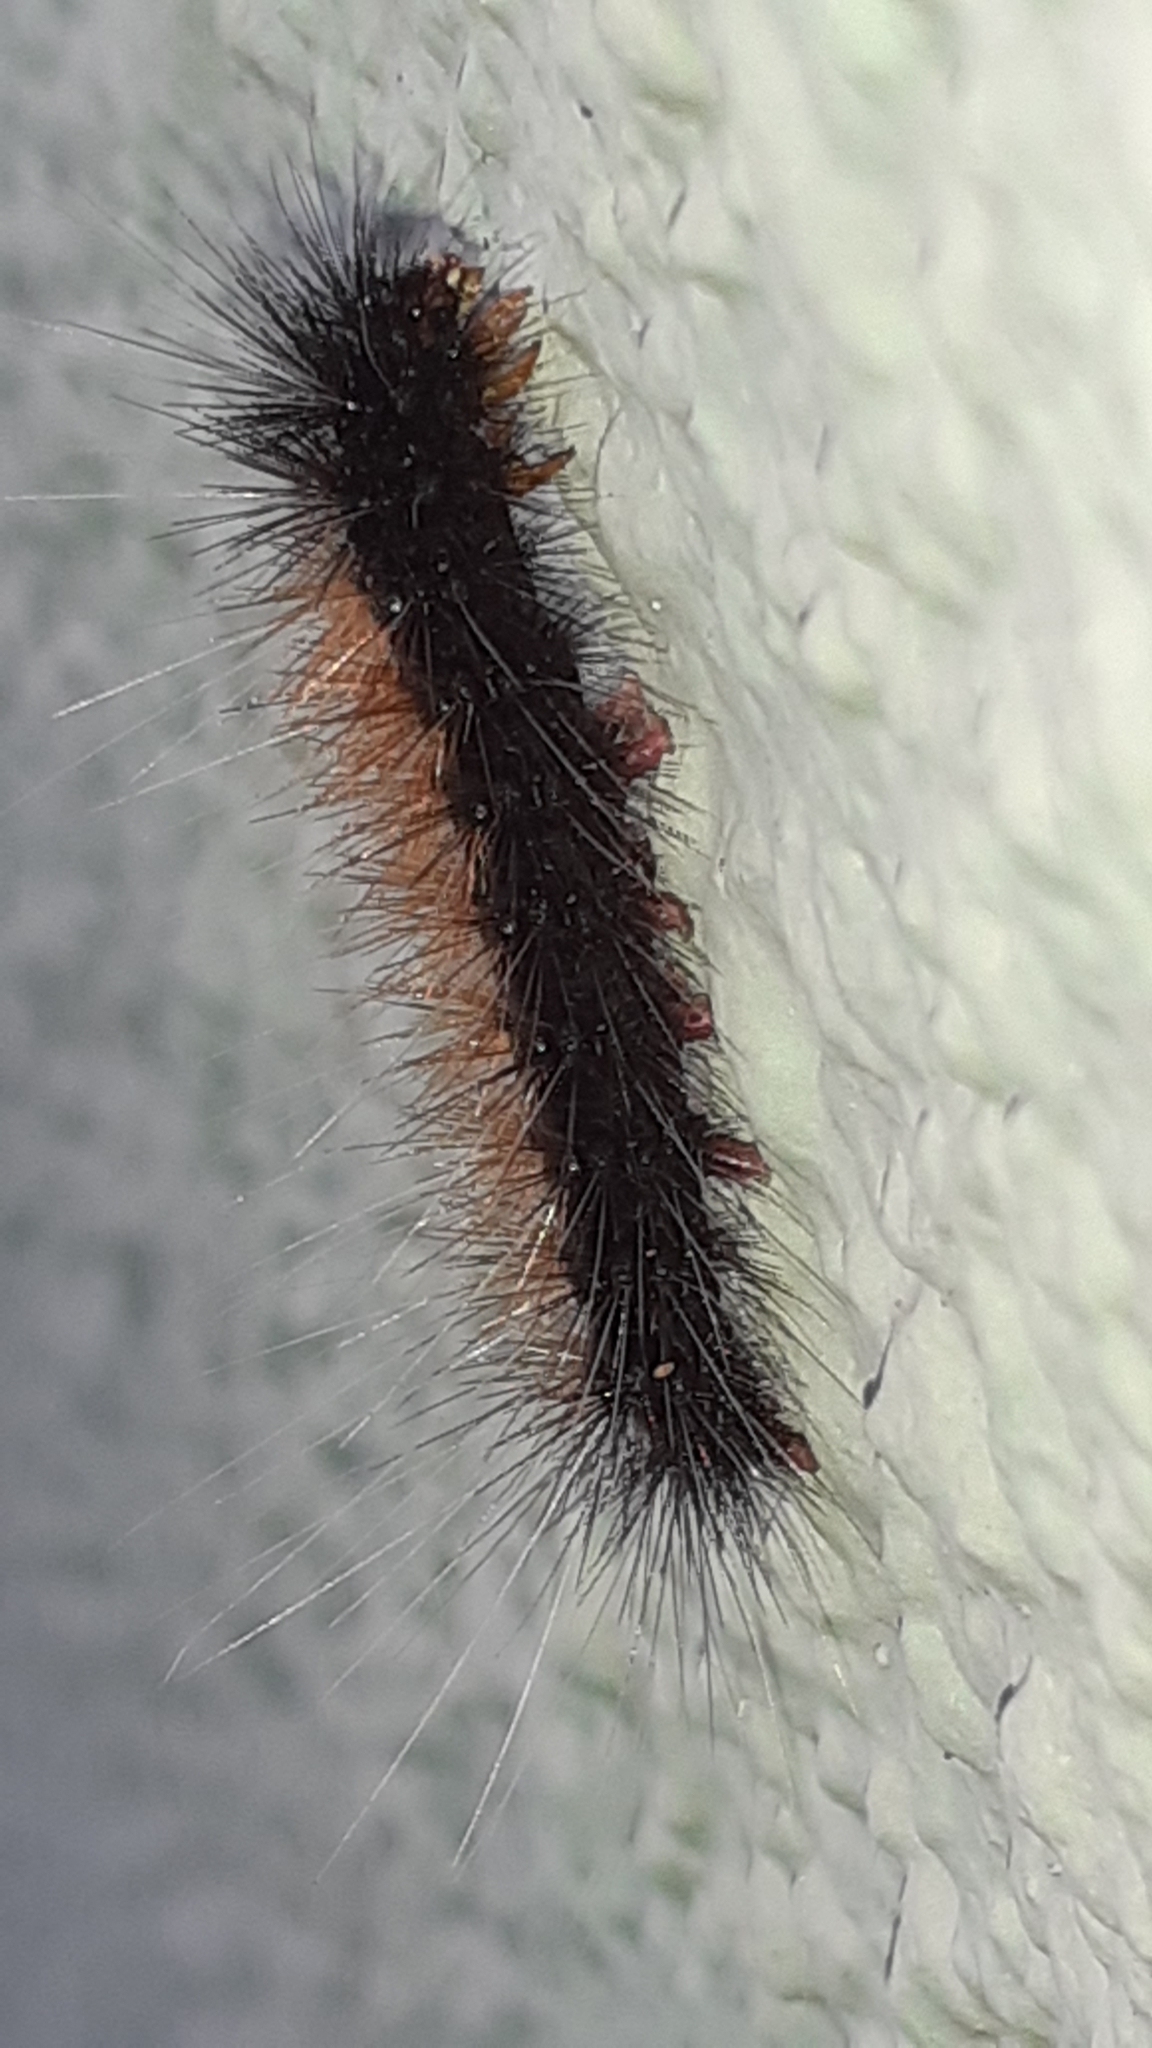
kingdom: Animalia
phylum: Arthropoda
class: Insecta
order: Lepidoptera
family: Erebidae
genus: Rhodogastria
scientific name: Rhodogastria amasis
